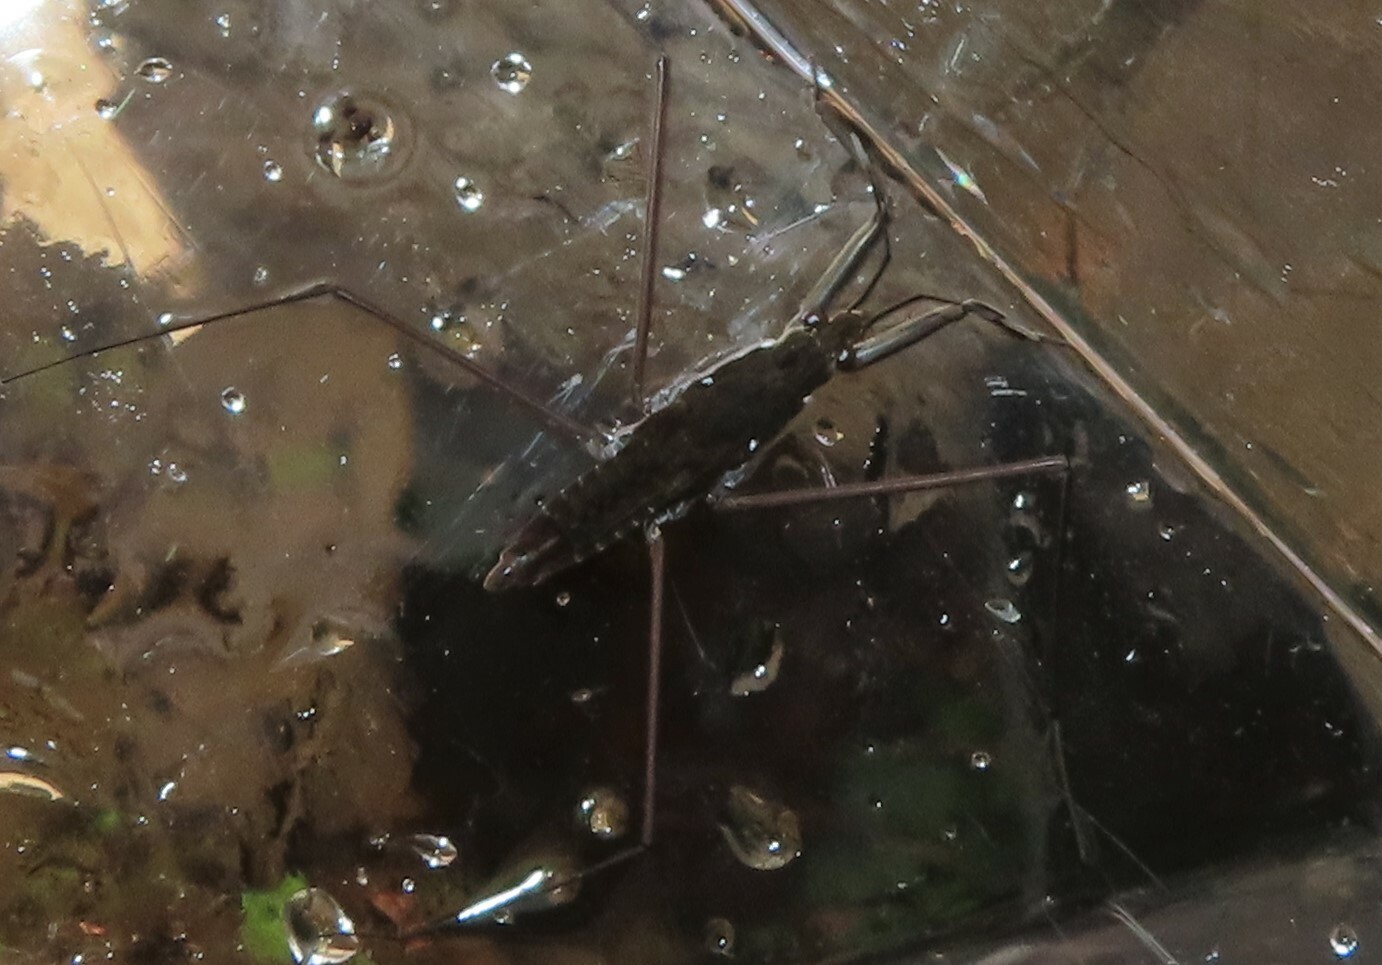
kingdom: Animalia
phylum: Arthropoda
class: Insecta
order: Hemiptera
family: Gerridae
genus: Aquarius
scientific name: Aquarius remigis
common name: Common water strider
